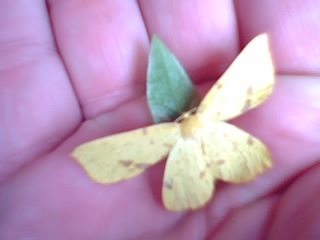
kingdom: Animalia
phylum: Arthropoda
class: Insecta
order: Lepidoptera
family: Geometridae
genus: Xanthotype
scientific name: Xanthotype
